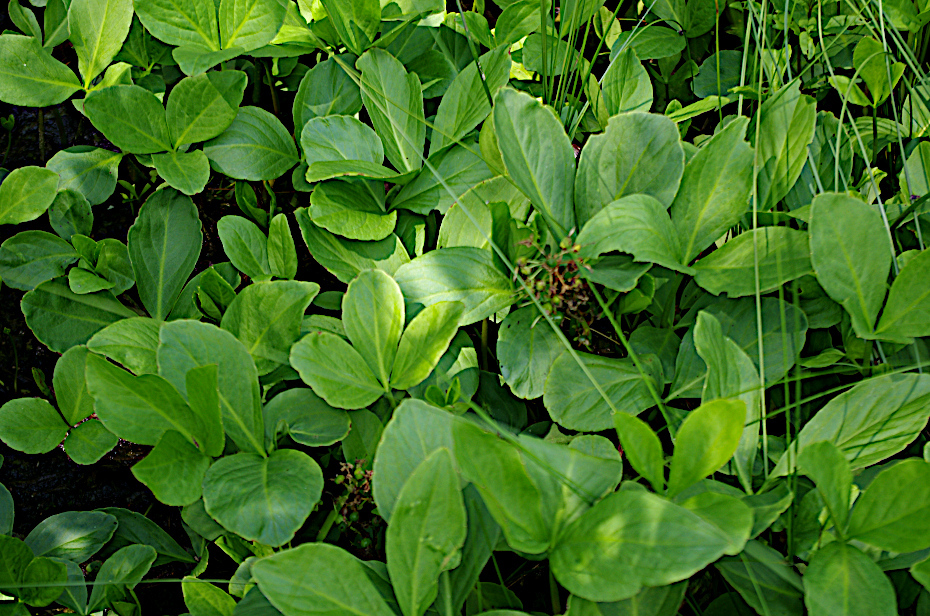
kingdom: Plantae
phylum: Tracheophyta
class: Magnoliopsida
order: Asterales
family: Menyanthaceae
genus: Menyanthes
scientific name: Menyanthes trifoliata
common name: Bogbean
